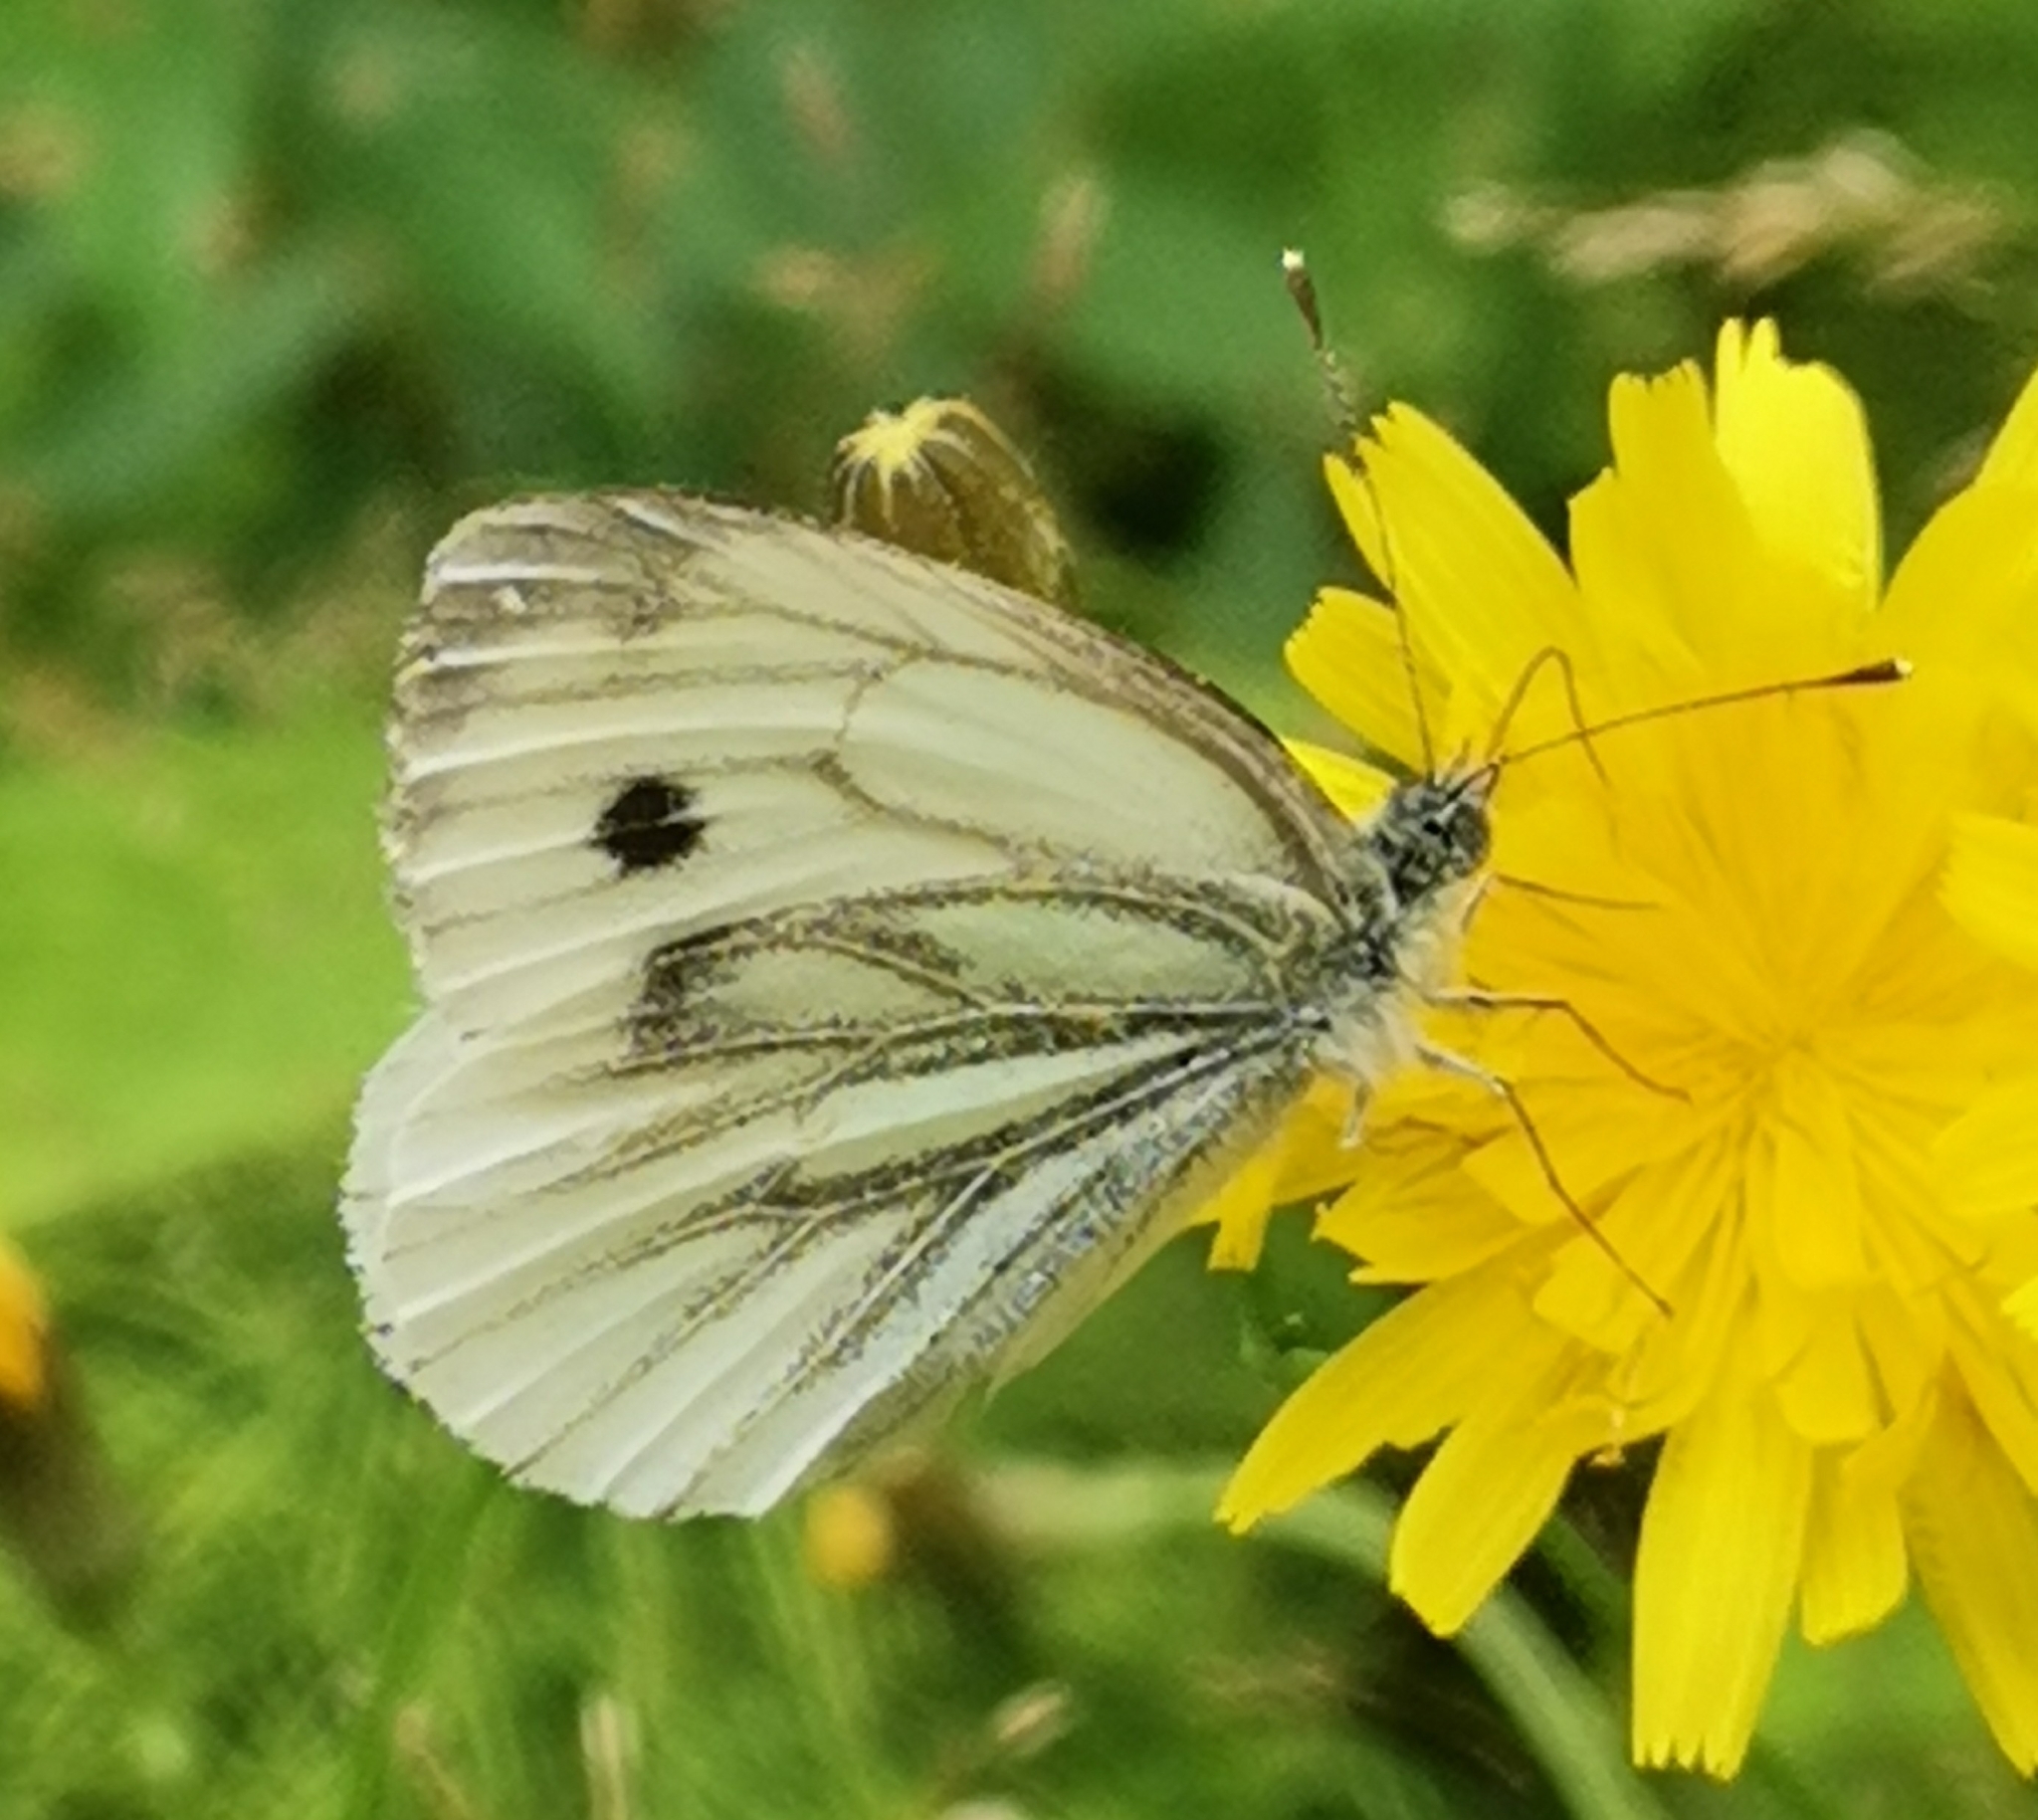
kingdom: Animalia
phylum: Arthropoda
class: Insecta
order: Lepidoptera
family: Pieridae
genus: Pieris
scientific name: Pieris napi
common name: Green-veined white
